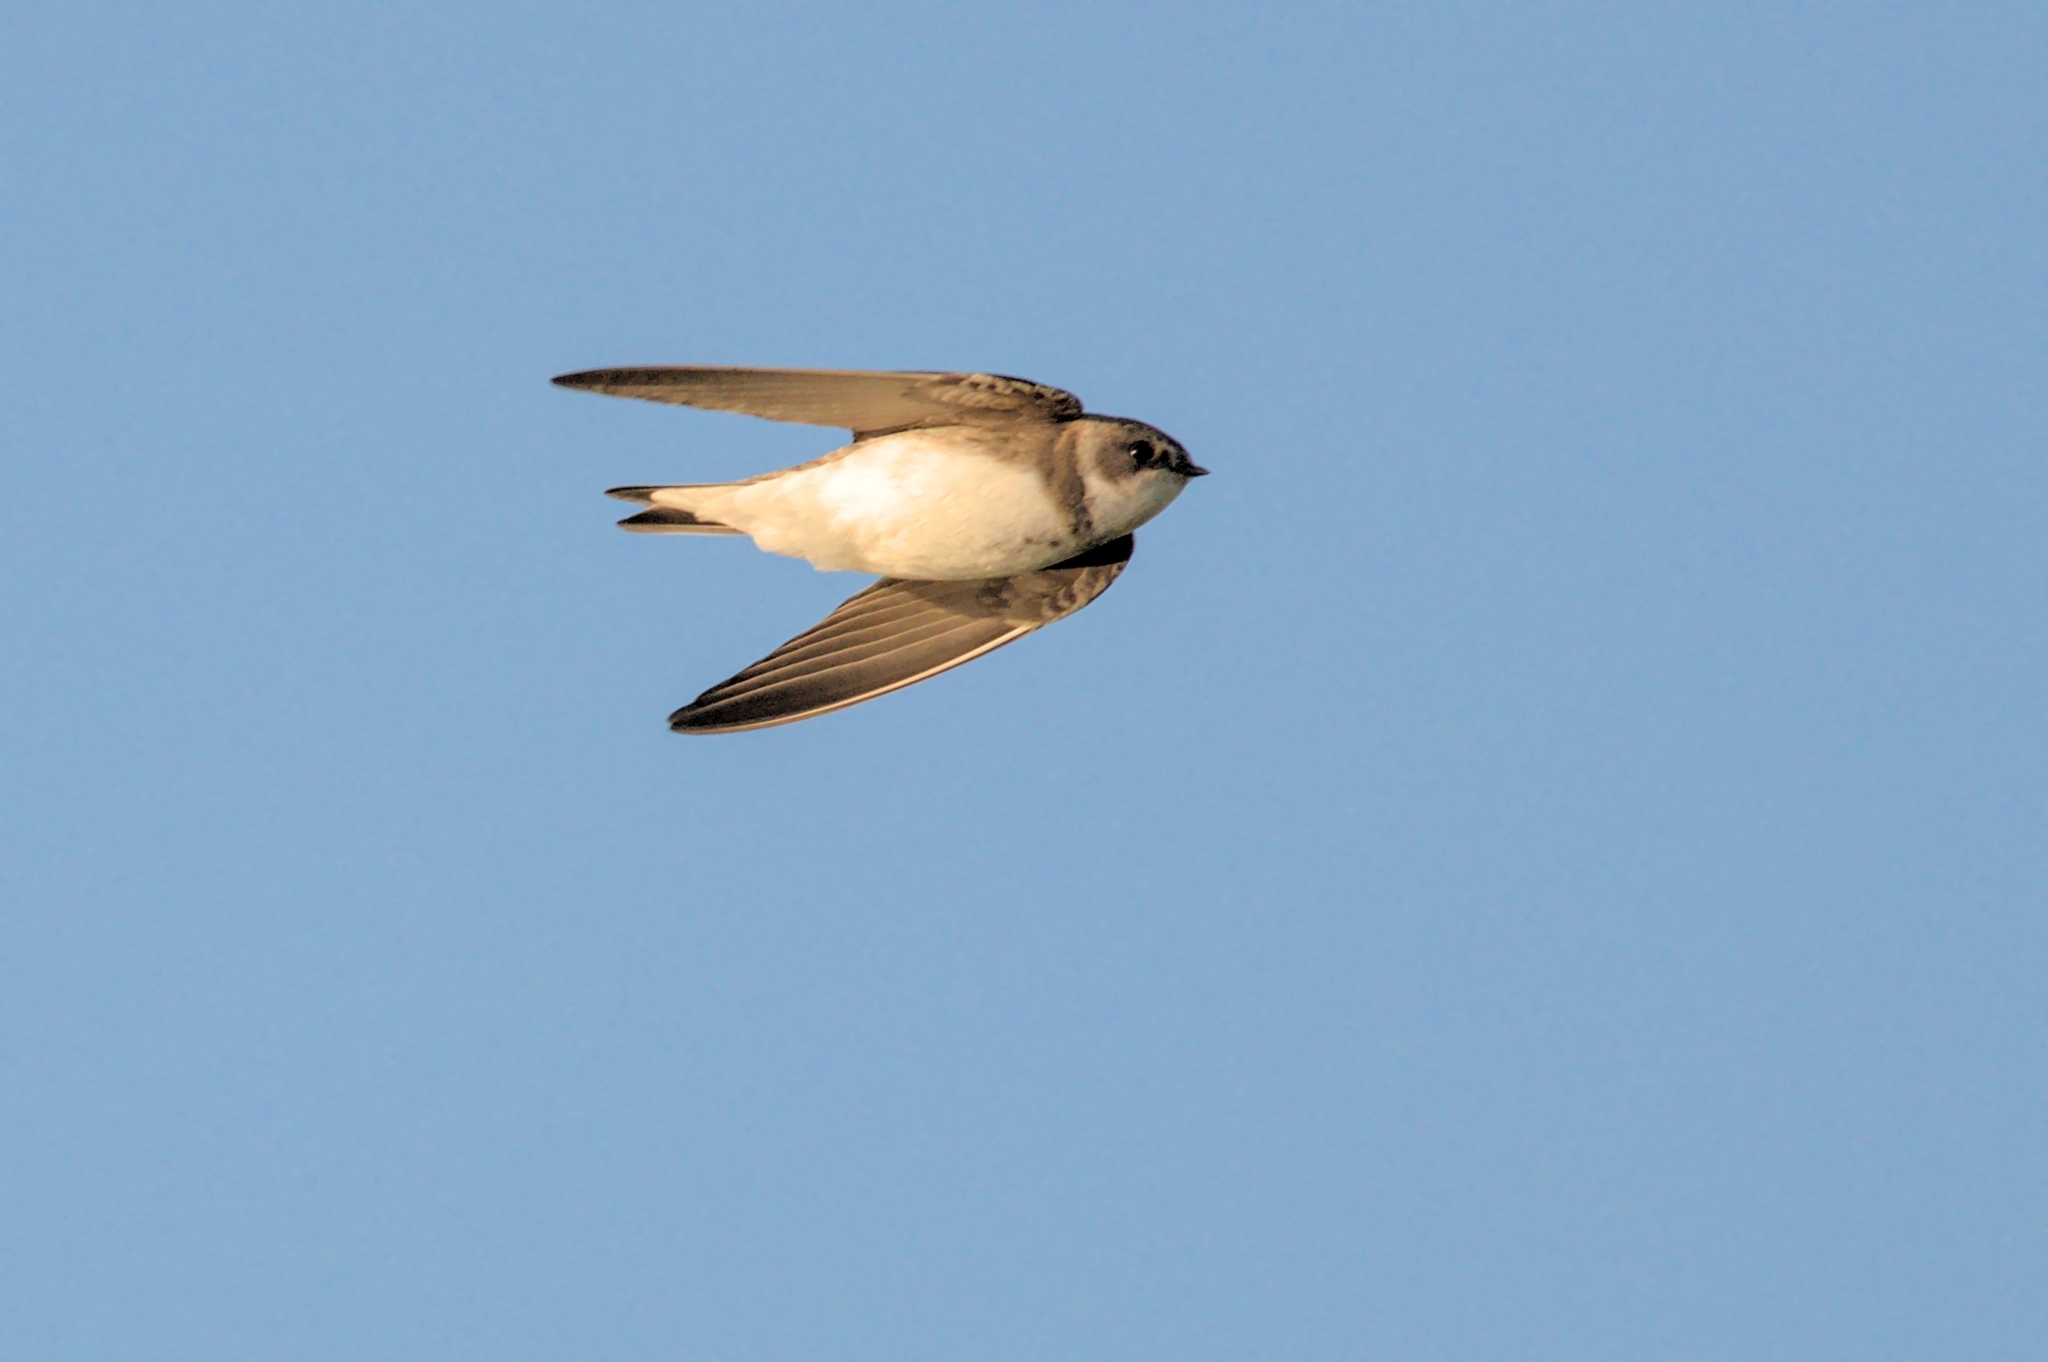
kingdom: Animalia
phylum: Chordata
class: Aves
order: Passeriformes
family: Hirundinidae
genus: Riparia
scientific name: Riparia riparia
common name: Sand martin
